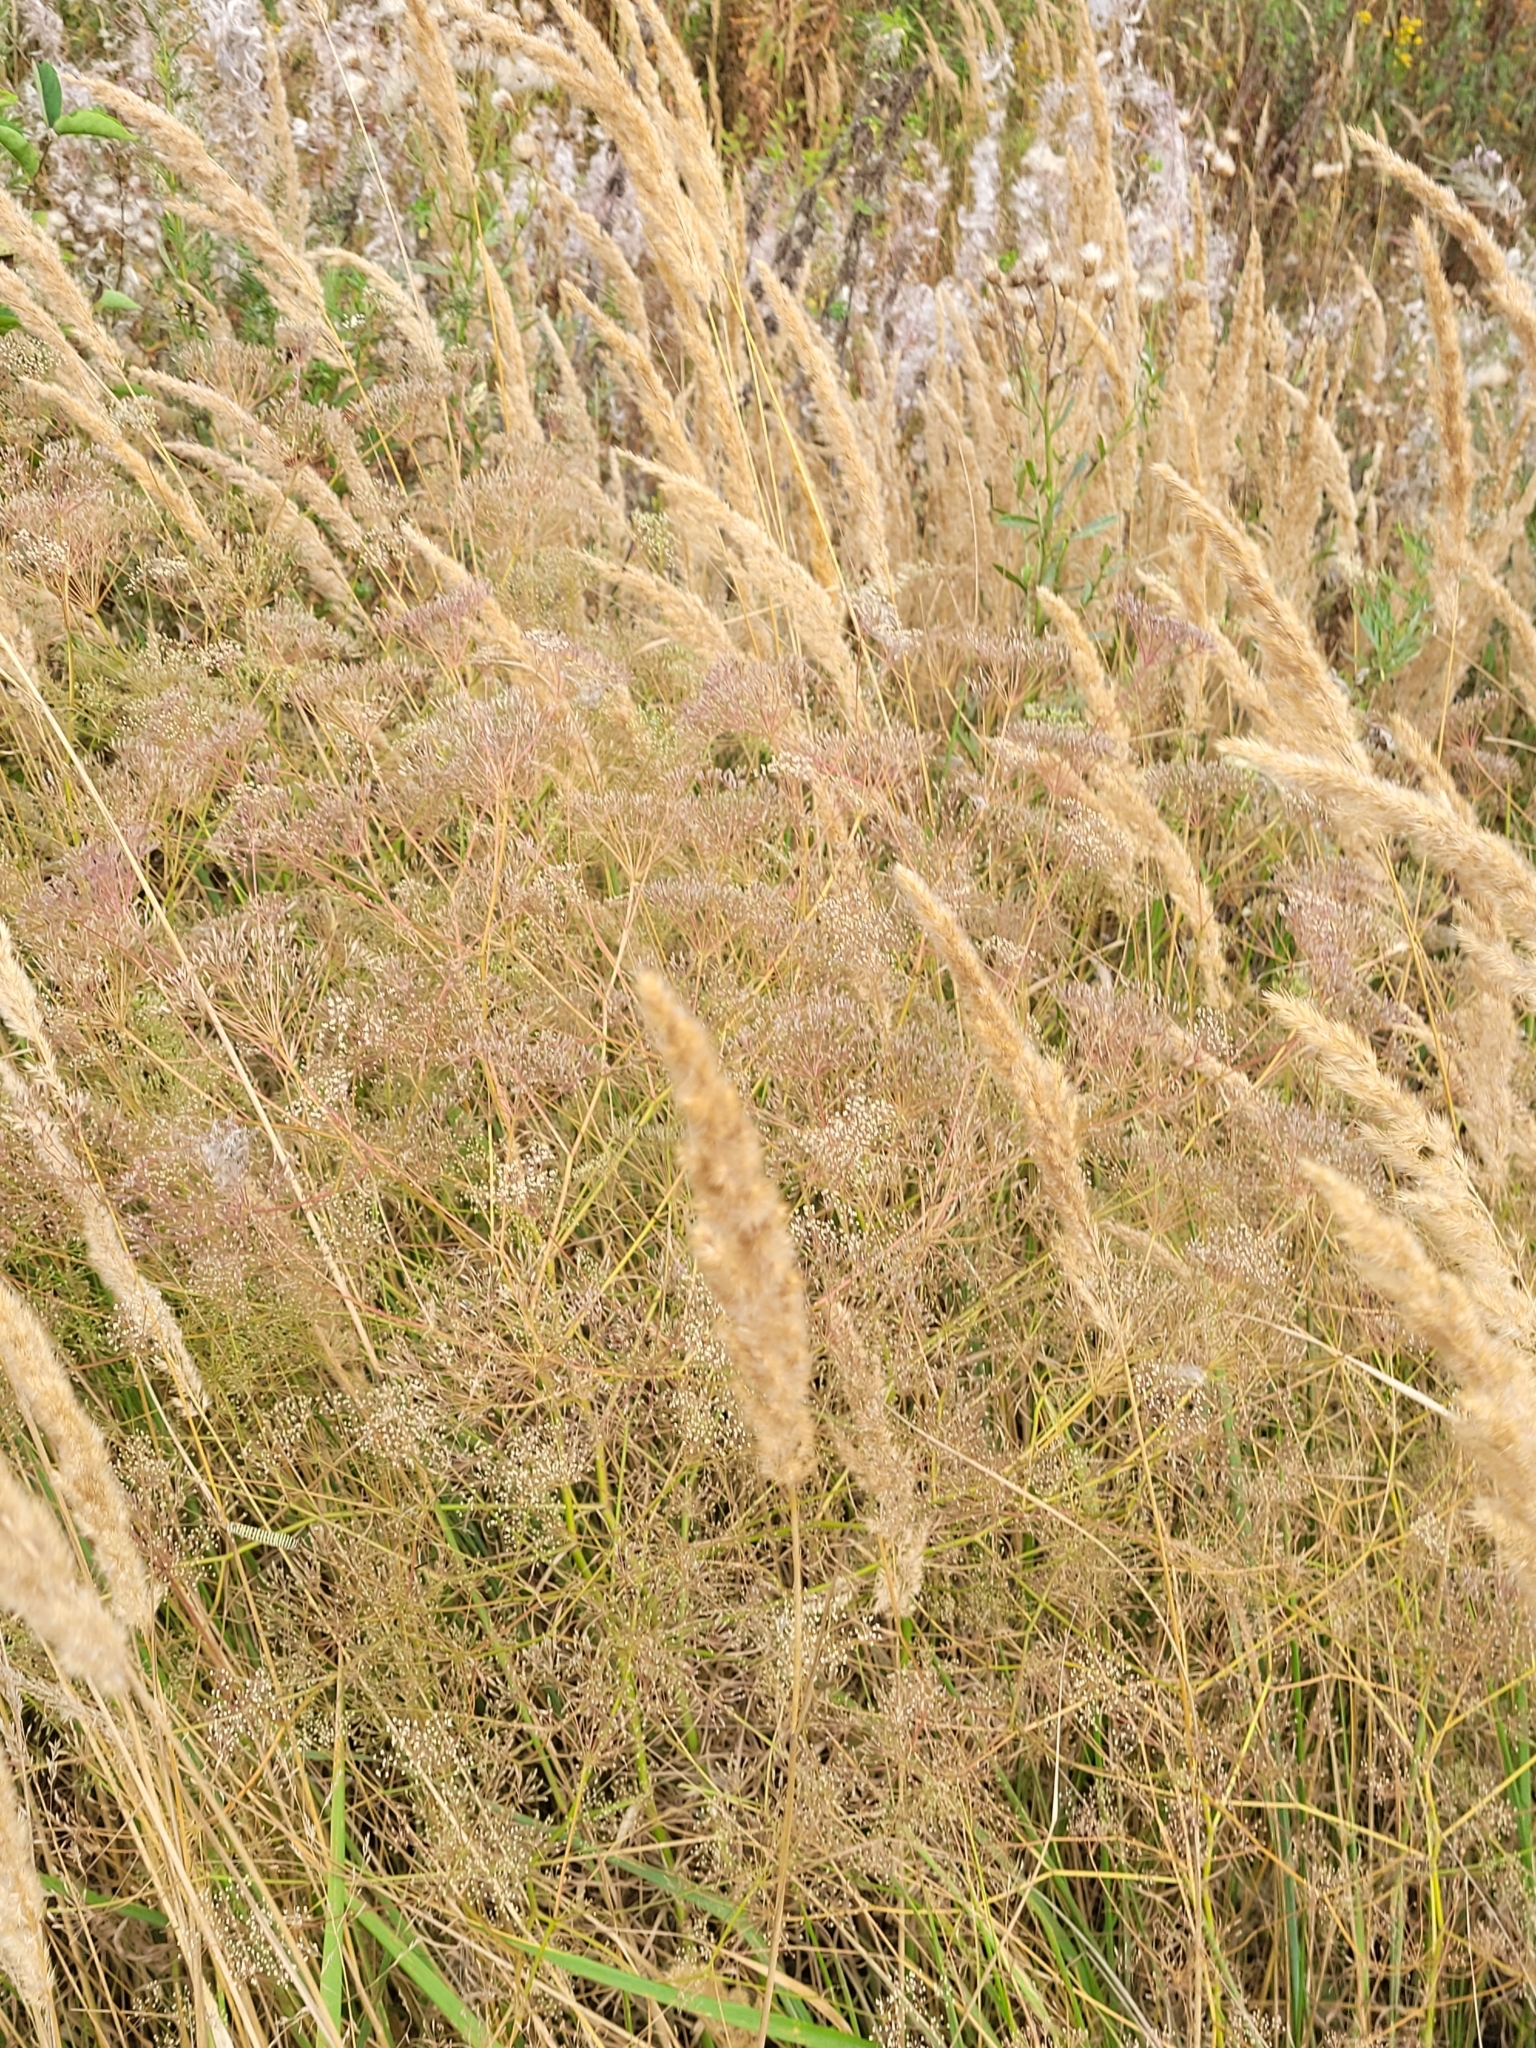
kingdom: Plantae
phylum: Tracheophyta
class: Magnoliopsida
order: Apiales
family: Apiaceae
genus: Falcaria
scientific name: Falcaria vulgaris
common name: Longleaf
